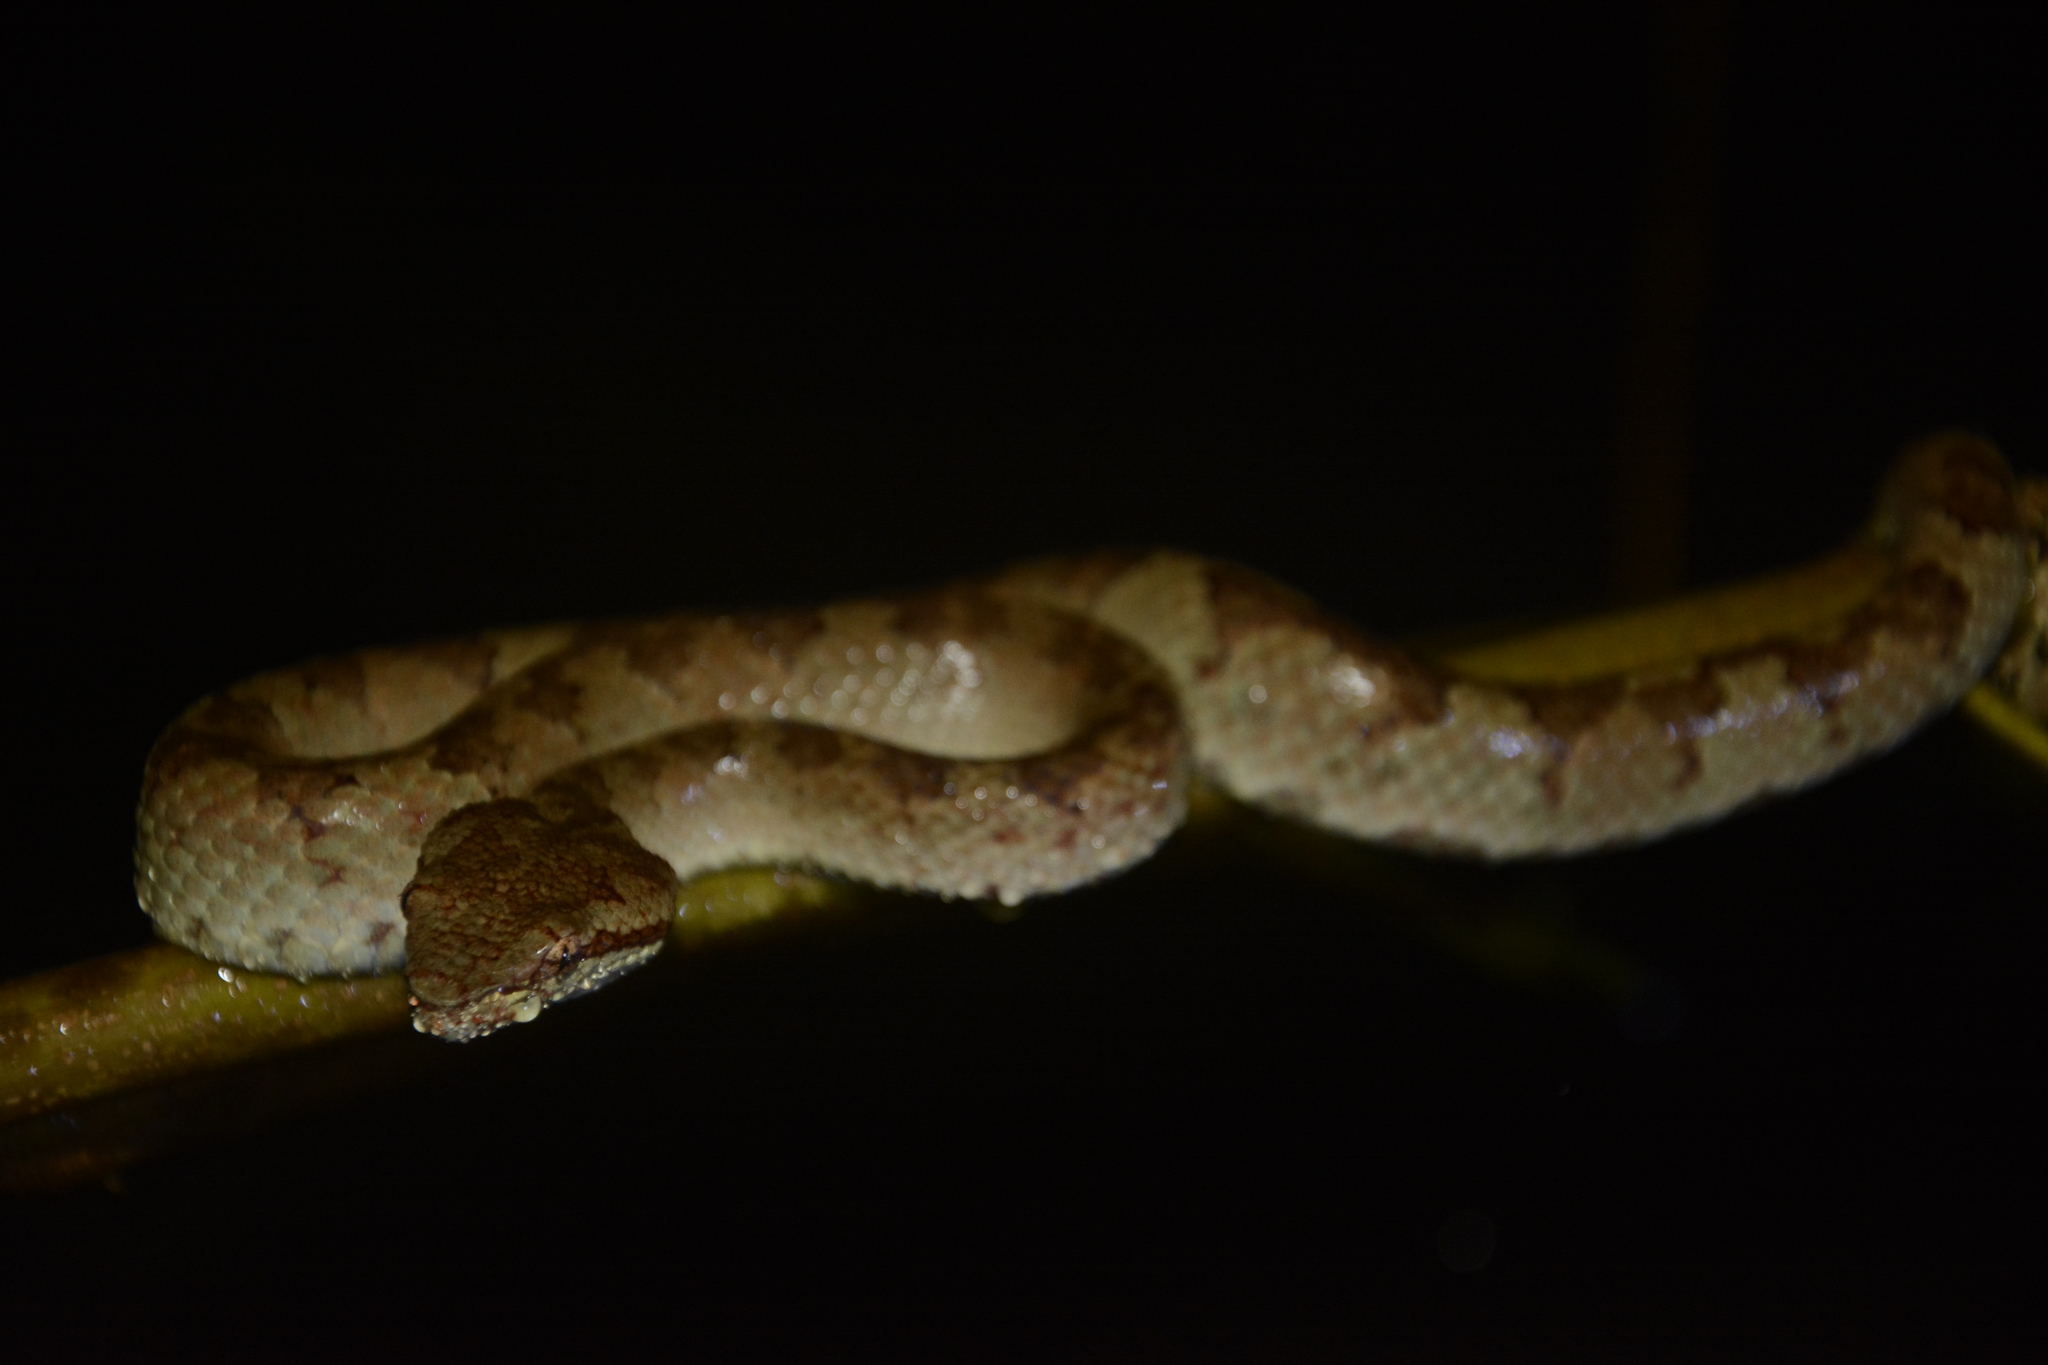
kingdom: Animalia
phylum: Chordata
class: Squamata
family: Viperidae
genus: Craspedocephalus
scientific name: Craspedocephalus malabaricus
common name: Malabarian pit viper
